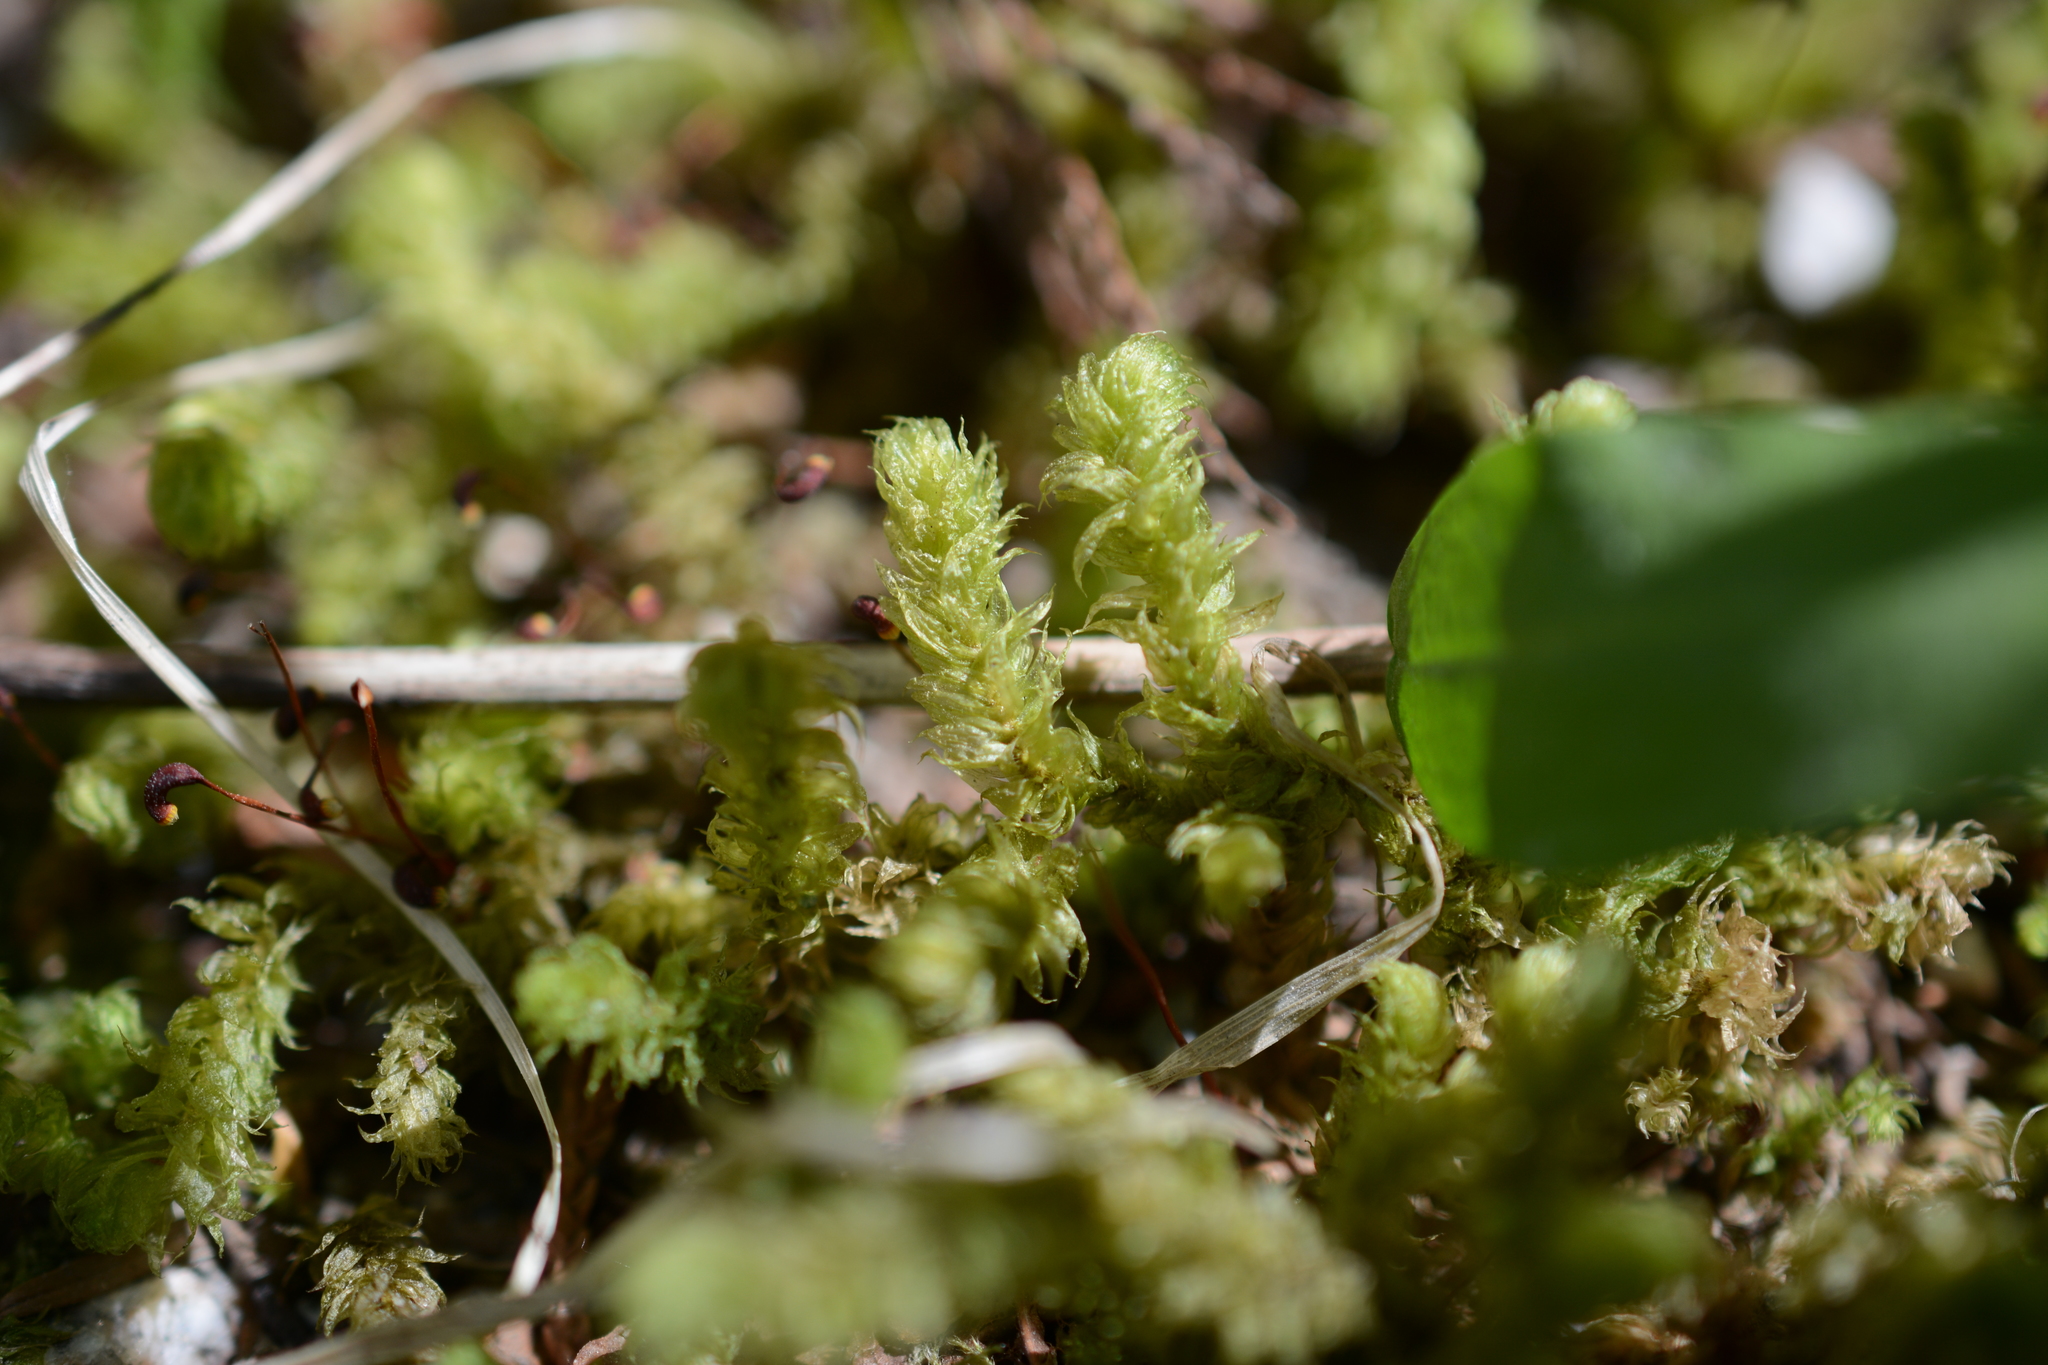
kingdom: Plantae
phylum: Bryophyta
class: Bryopsida
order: Hypnales
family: Hylocomiaceae
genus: Rhytidiopsis
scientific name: Rhytidiopsis robusta
